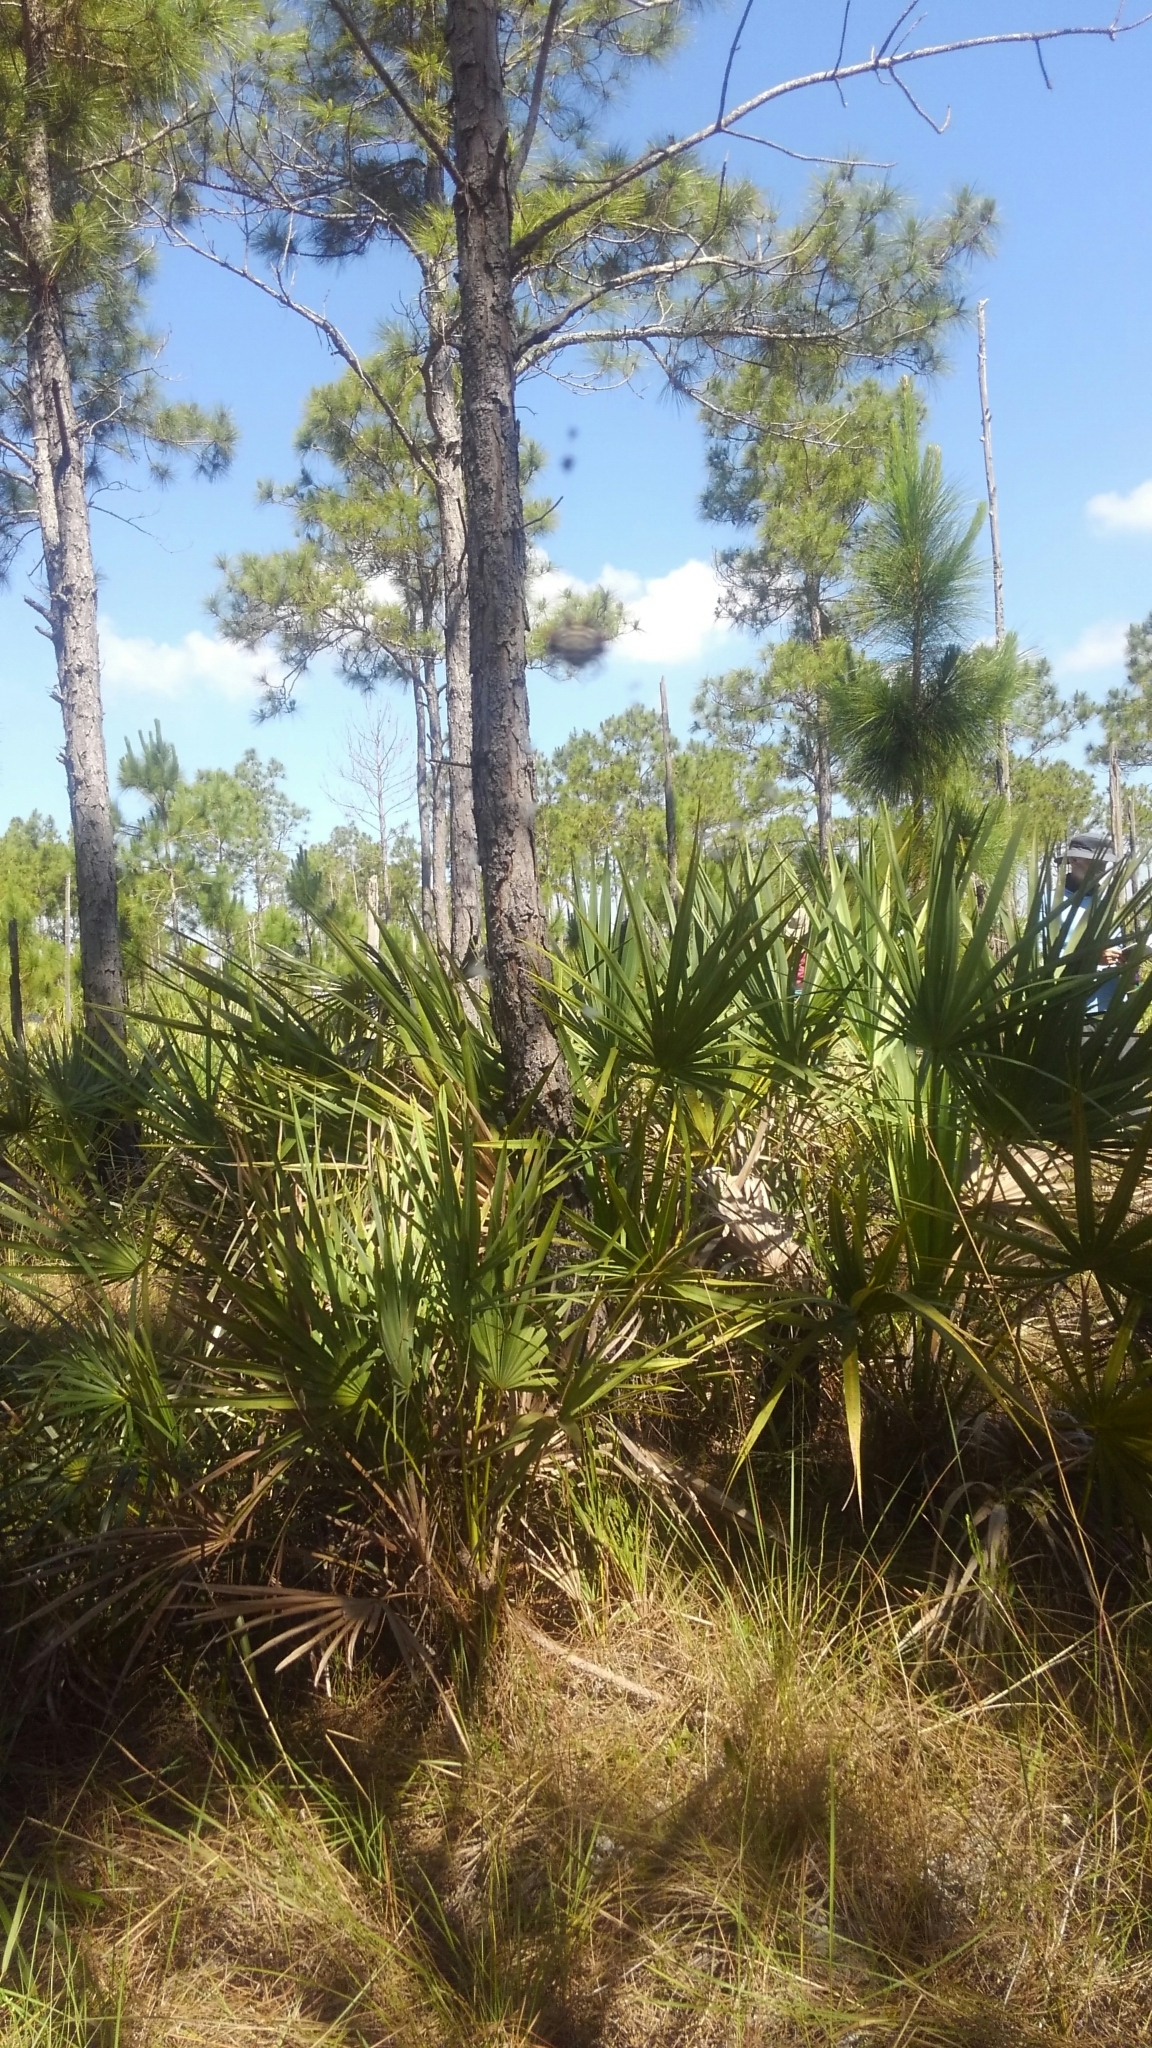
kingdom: Animalia
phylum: Arthropoda
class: Arachnida
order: Araneae
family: Araneidae
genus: Gasteracantha
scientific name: Gasteracantha cancriformis
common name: Orb weavers
